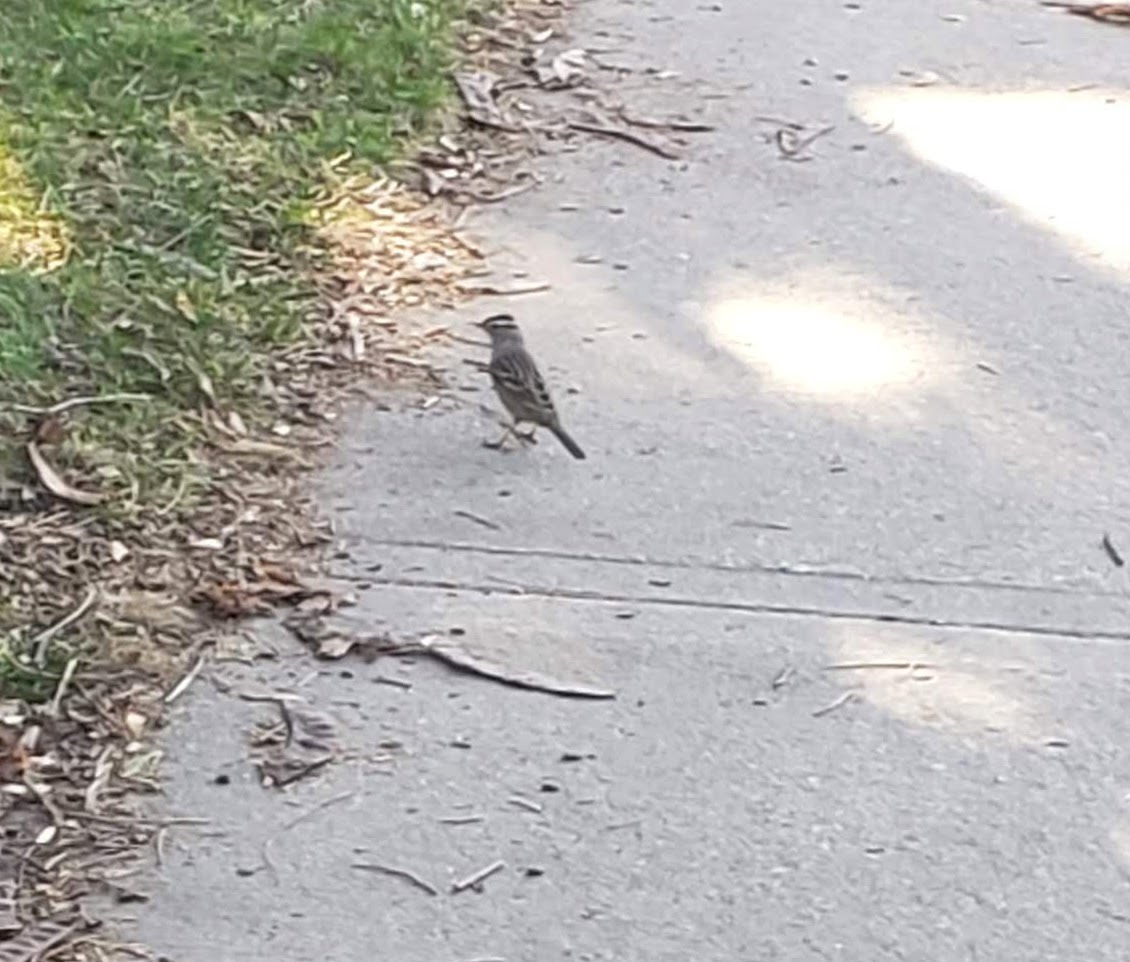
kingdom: Animalia
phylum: Chordata
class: Aves
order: Passeriformes
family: Passerellidae
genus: Zonotrichia
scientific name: Zonotrichia leucophrys
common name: White-crowned sparrow
